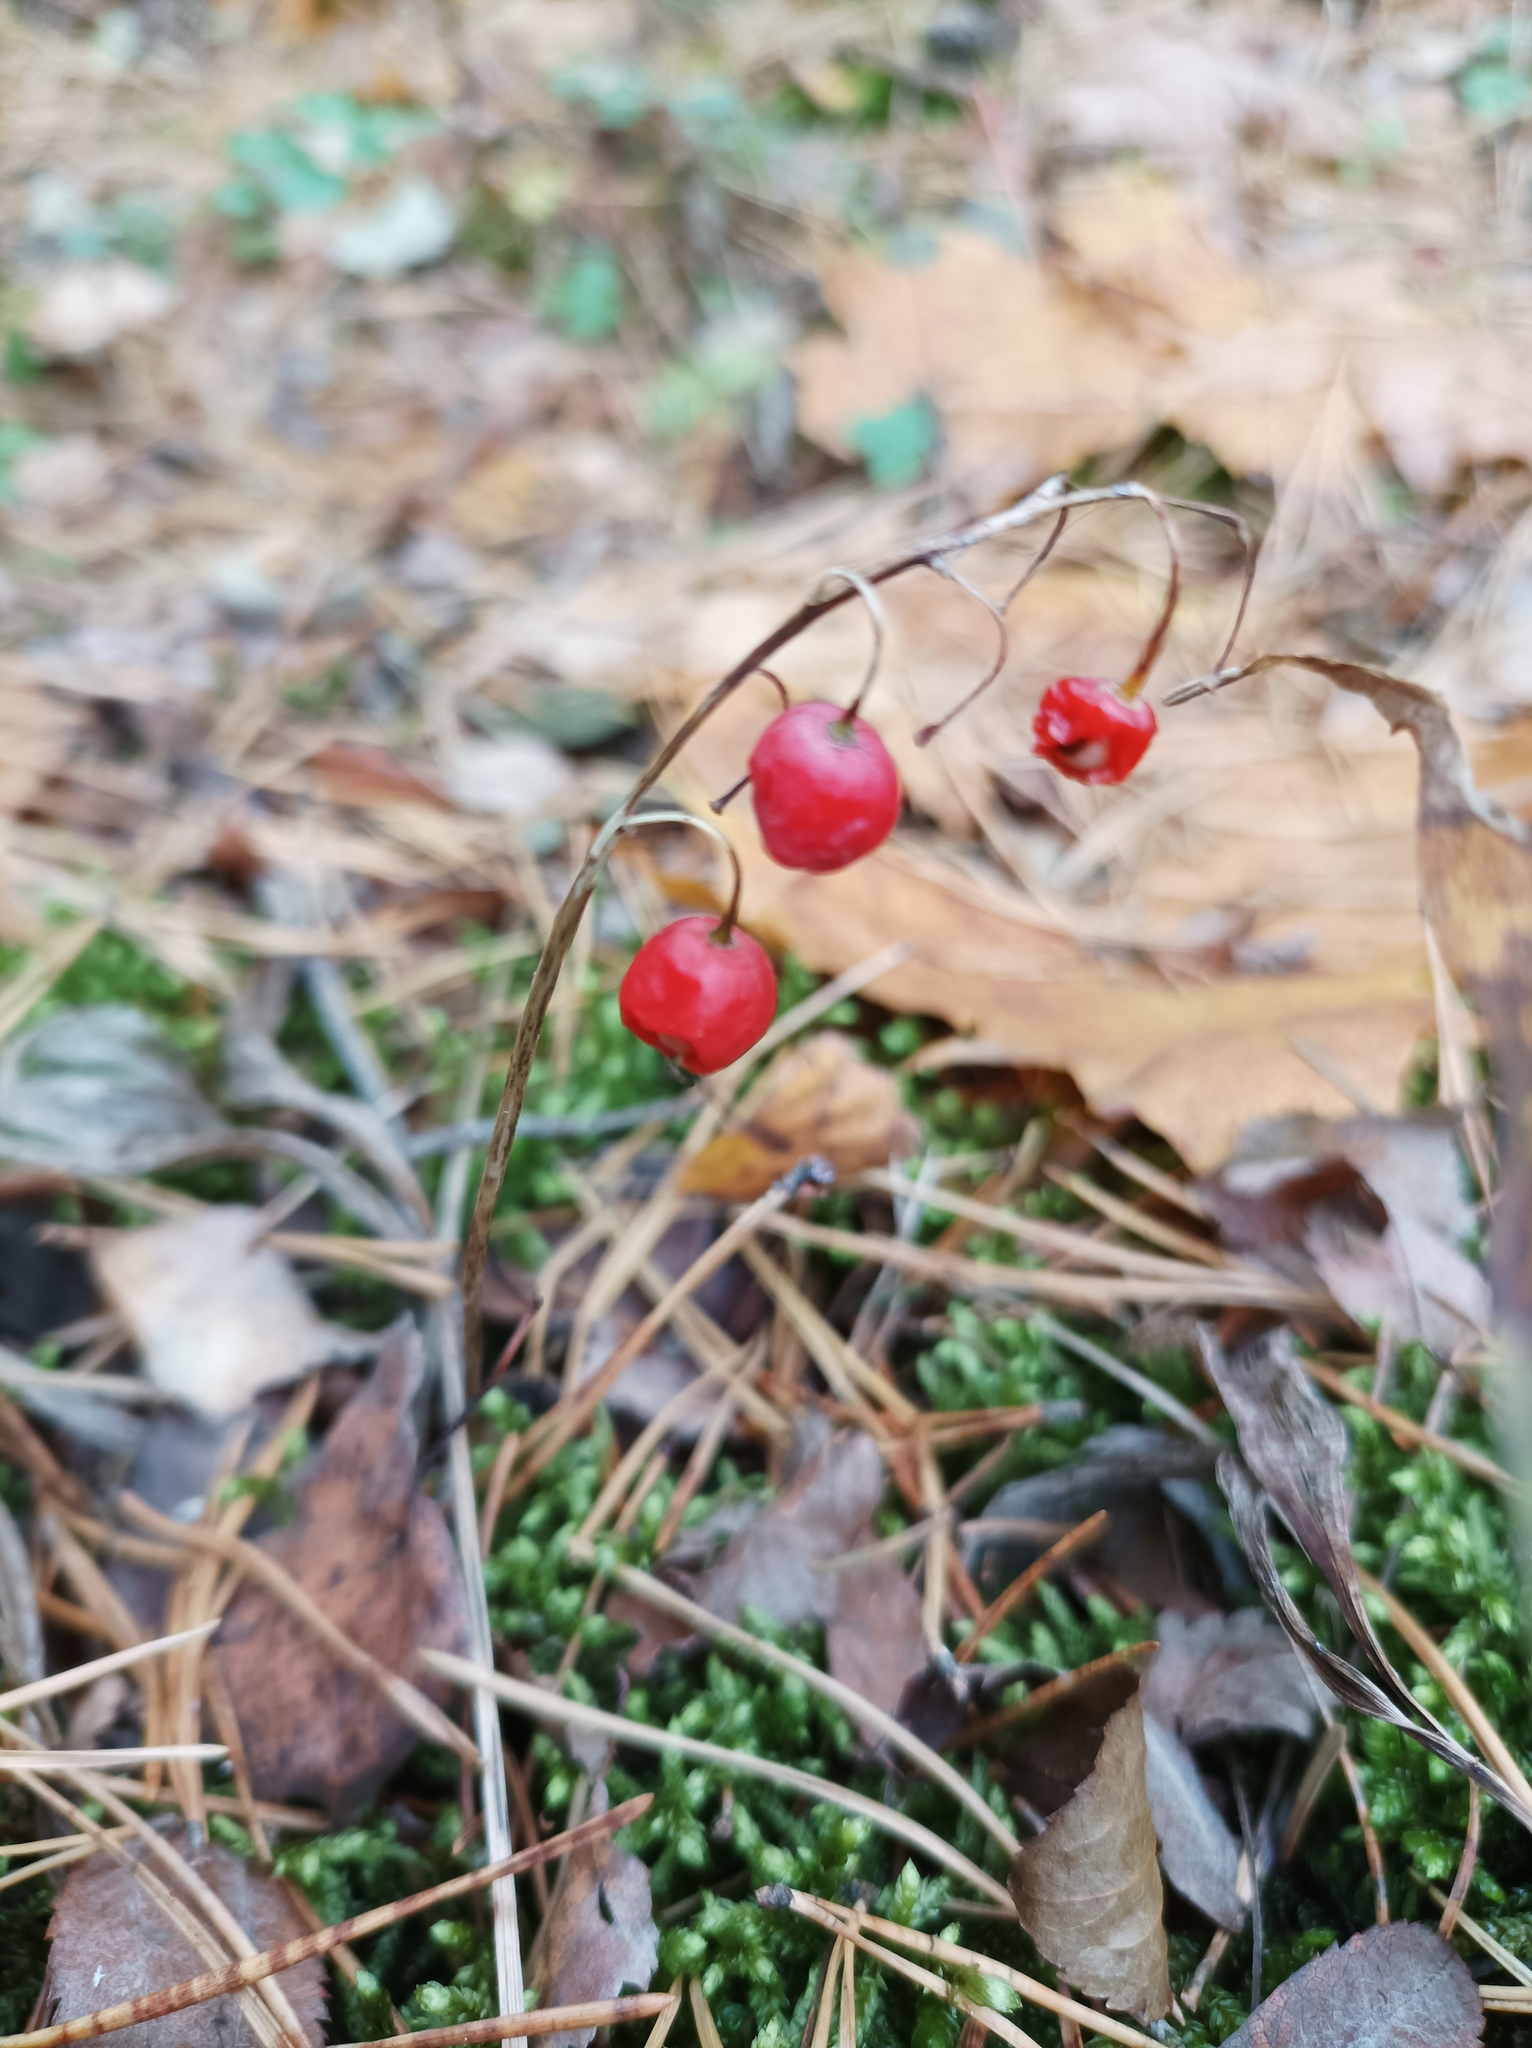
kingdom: Plantae
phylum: Tracheophyta
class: Liliopsida
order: Asparagales
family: Asparagaceae
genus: Convallaria
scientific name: Convallaria majalis
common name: Lily-of-the-valley
